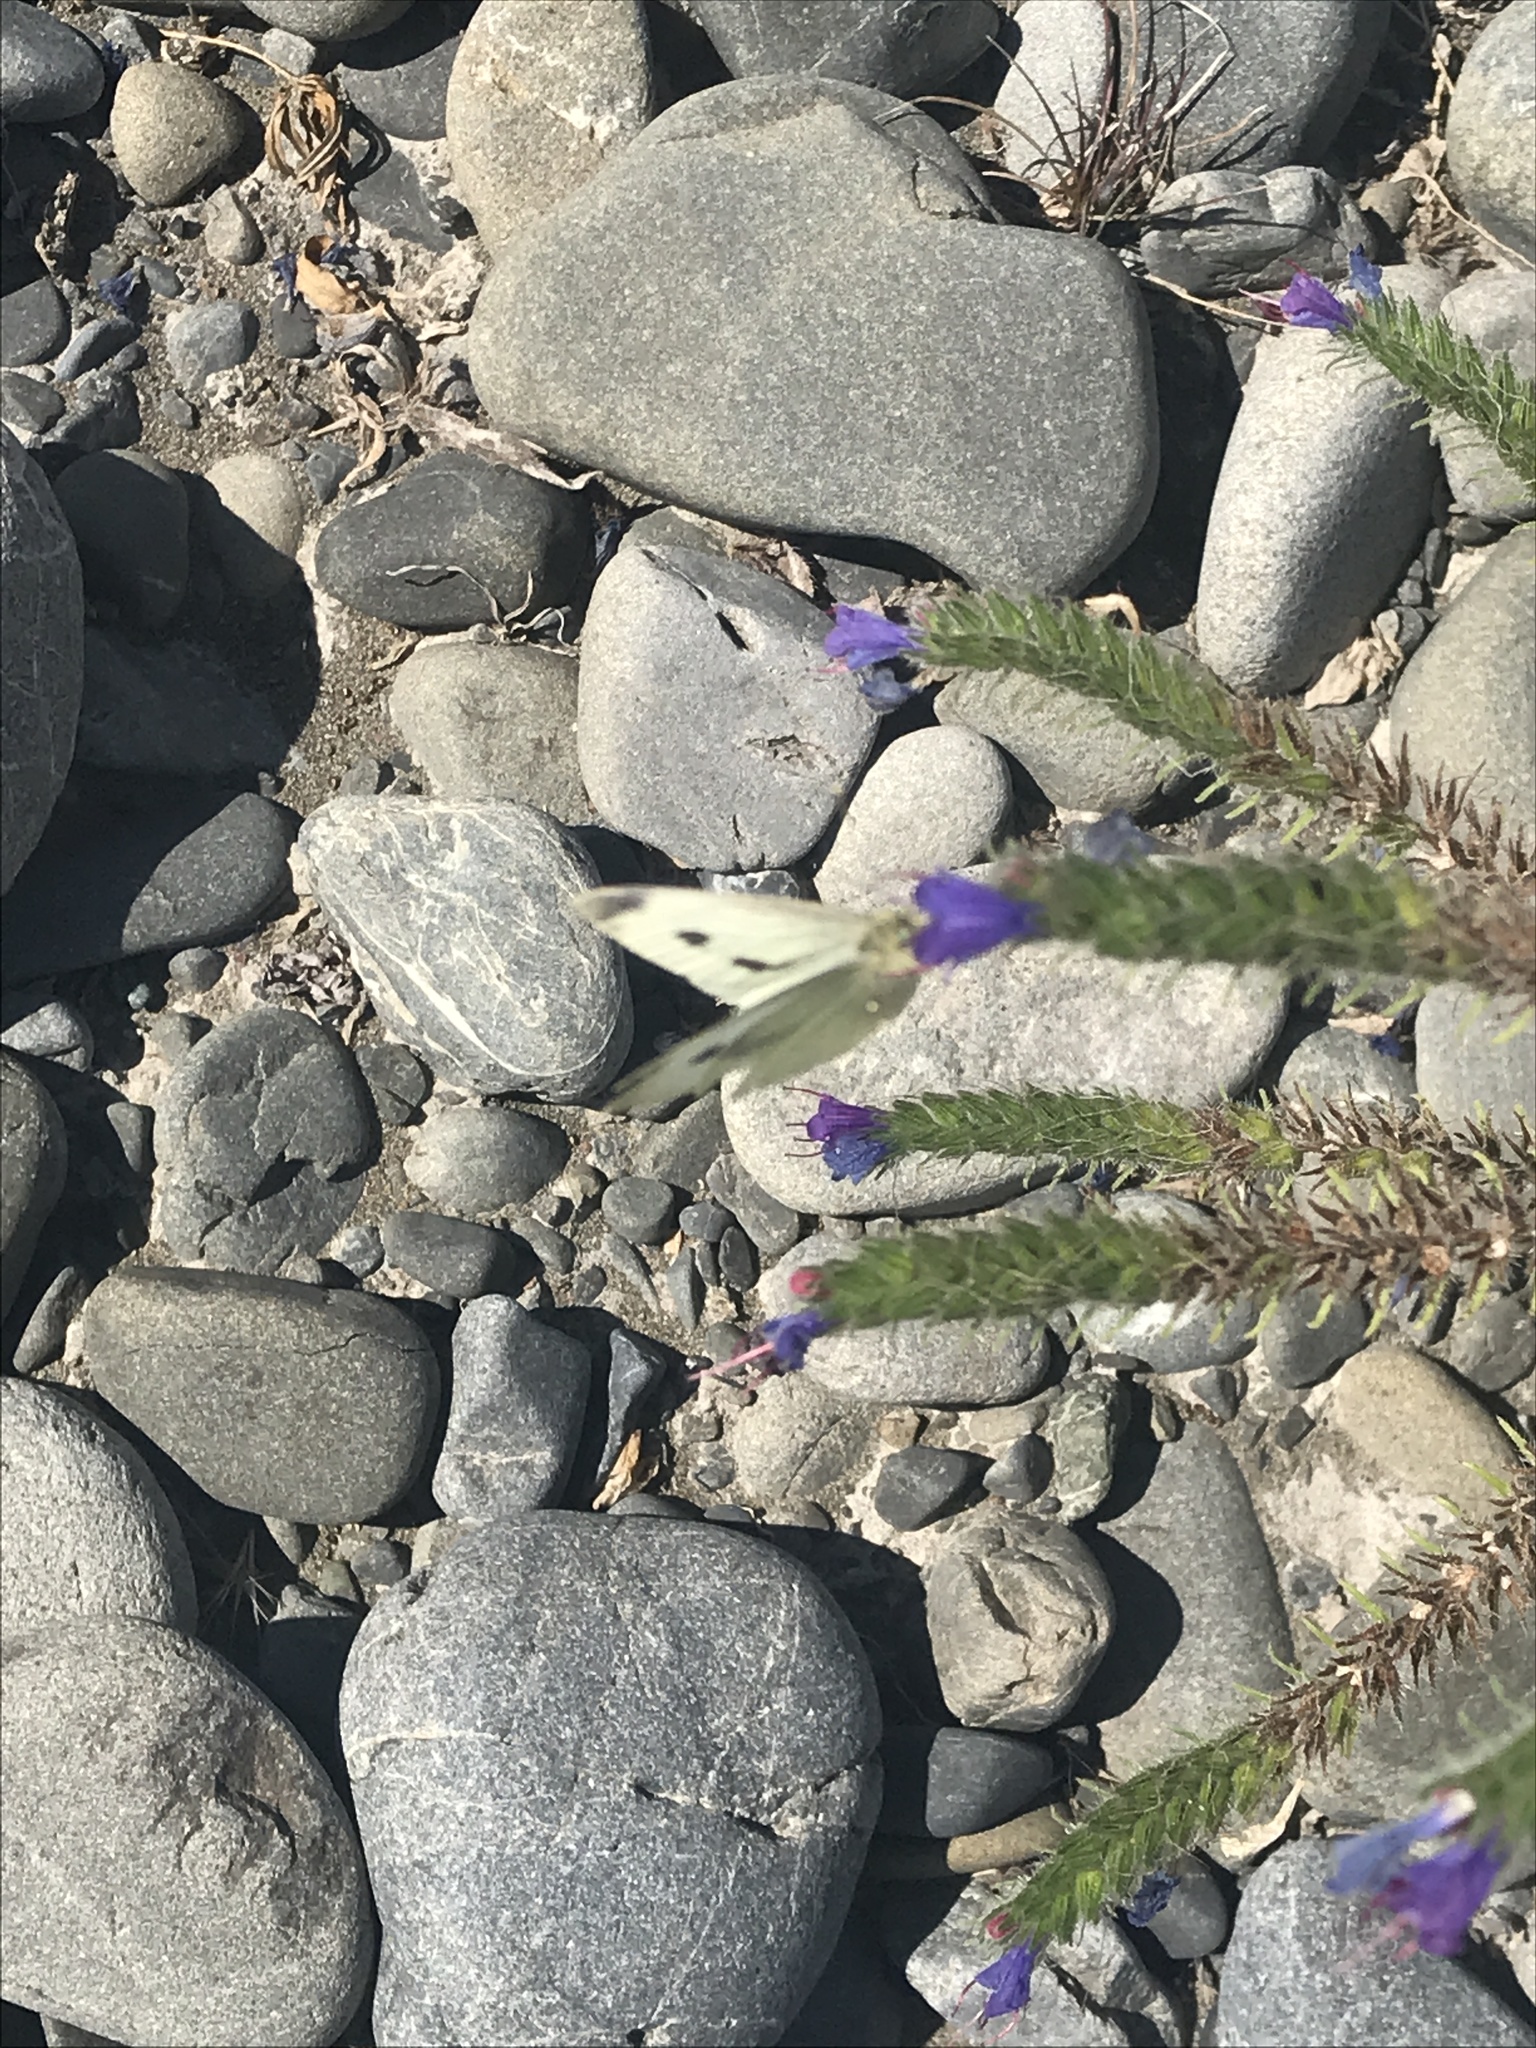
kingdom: Animalia
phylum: Arthropoda
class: Insecta
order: Lepidoptera
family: Pieridae
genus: Pieris
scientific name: Pieris rapae
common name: Small white
